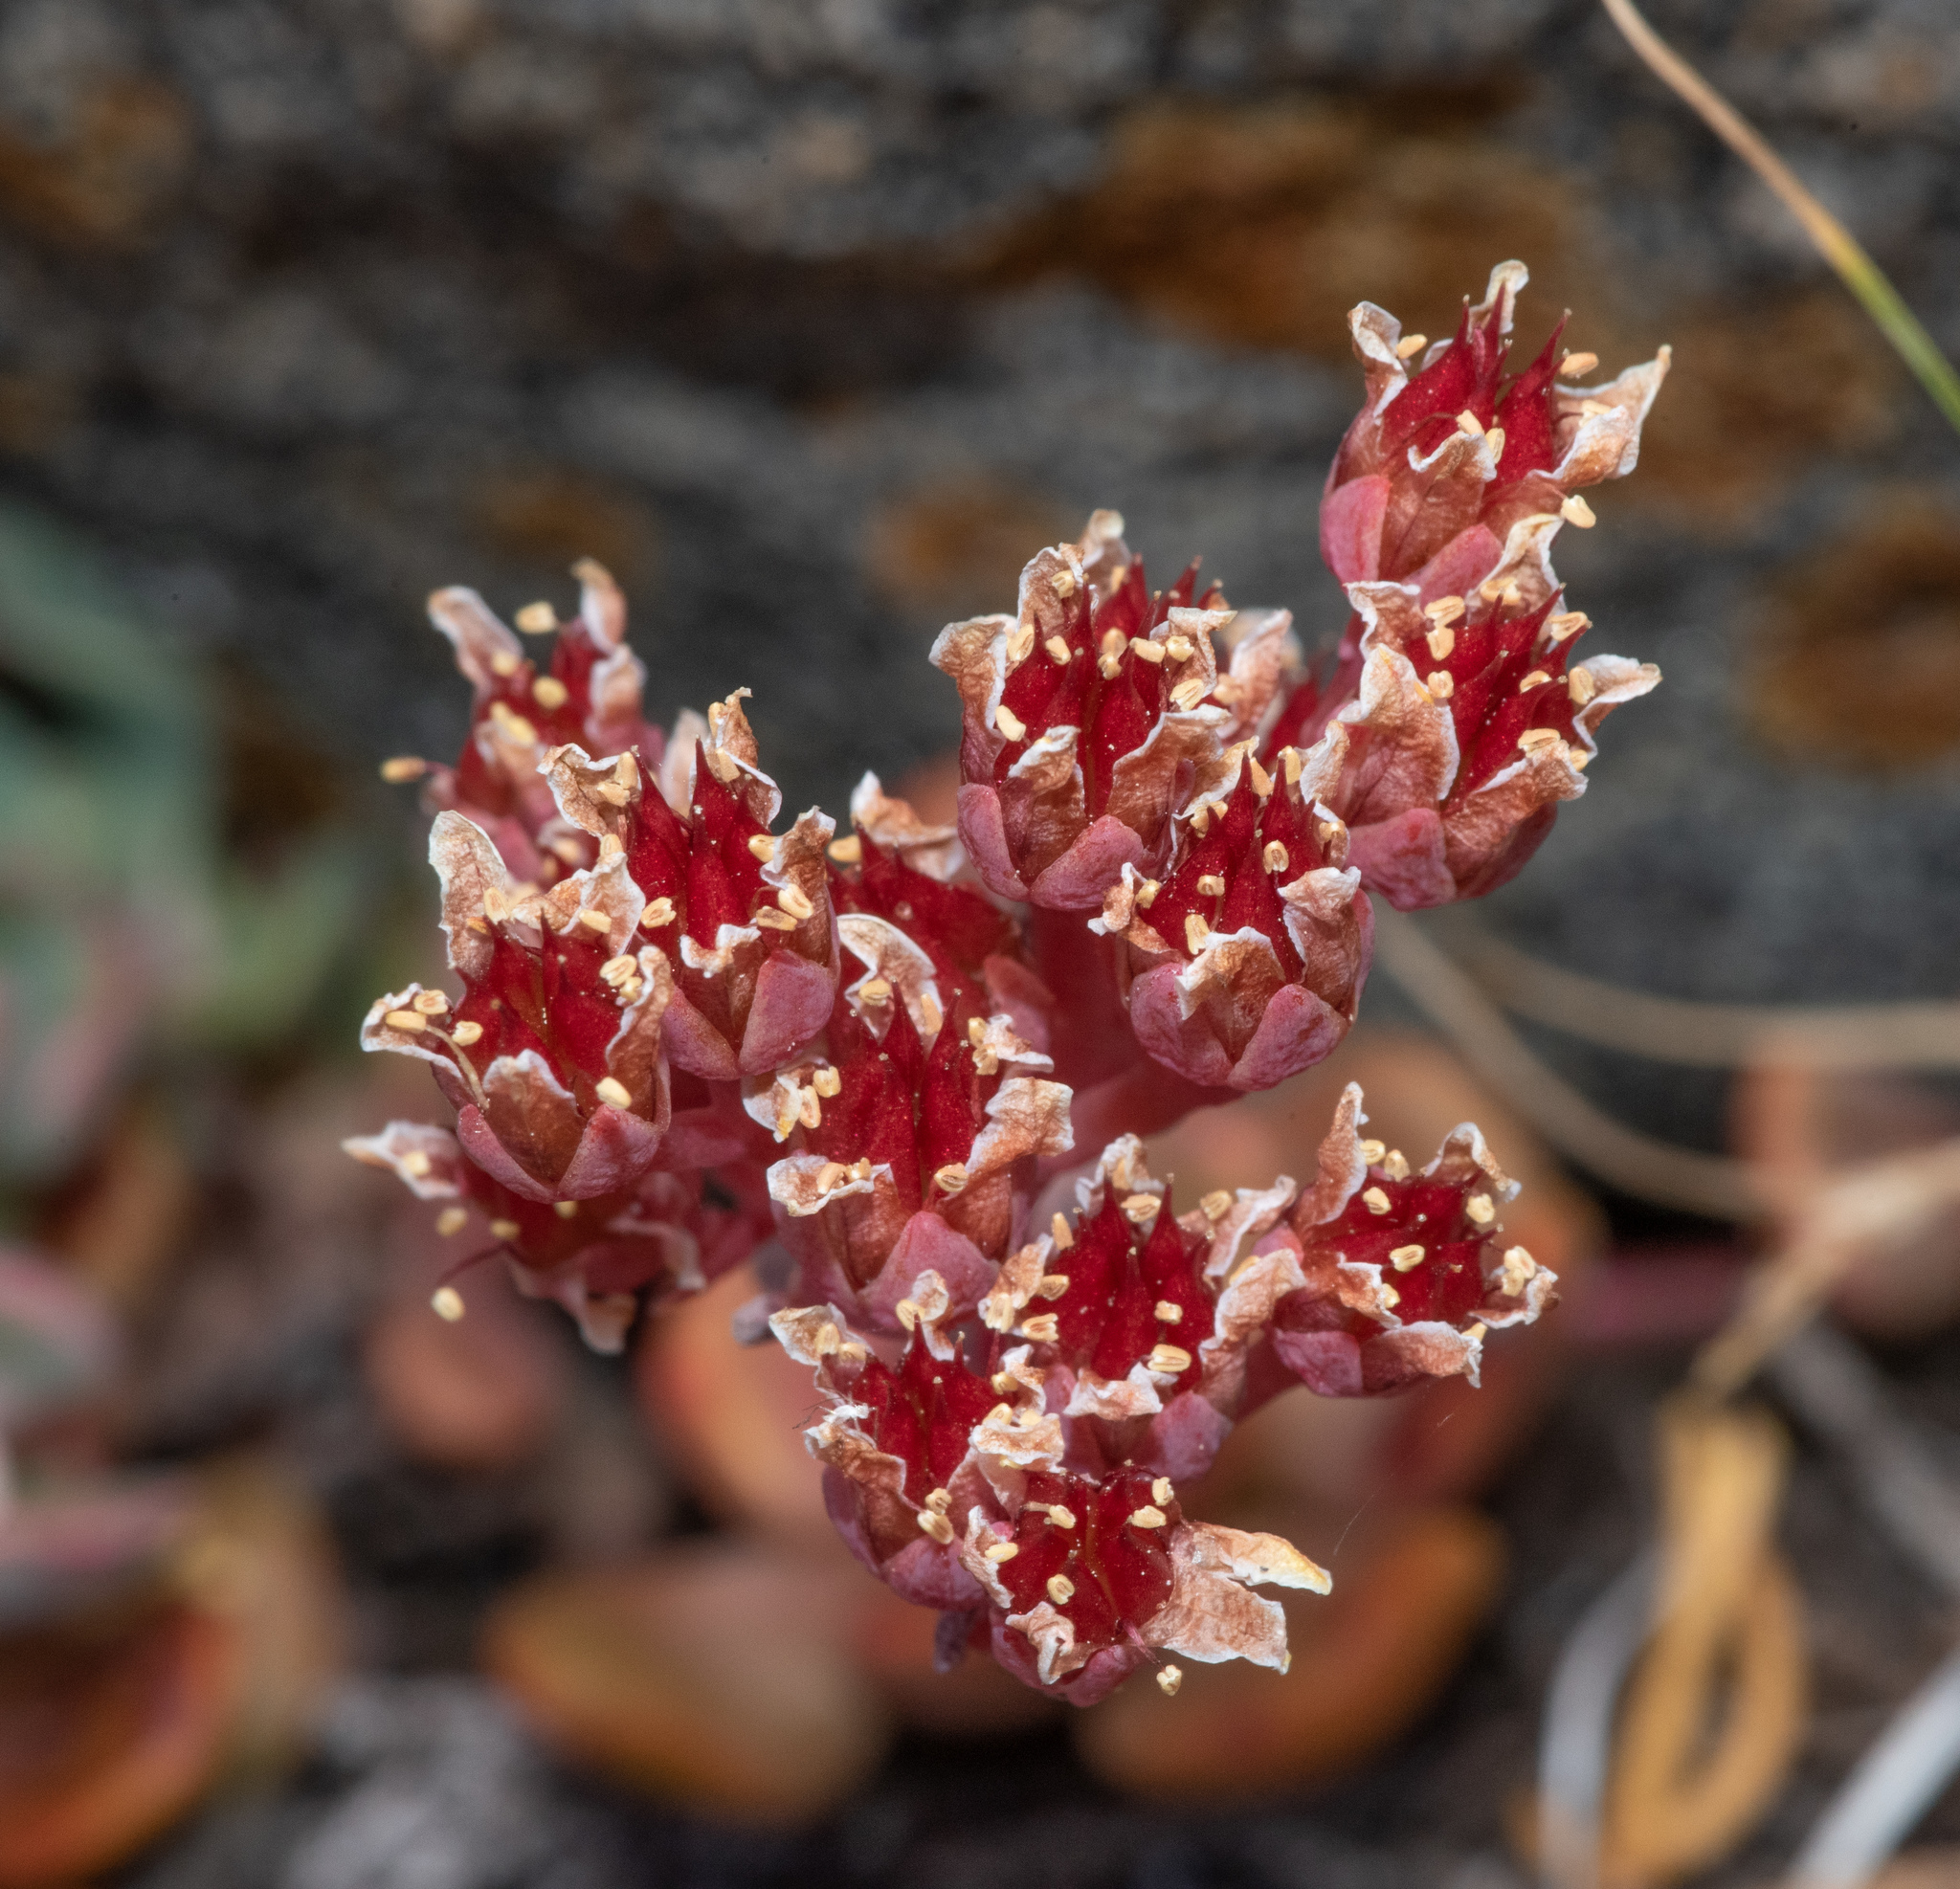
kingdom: Plantae
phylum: Tracheophyta
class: Magnoliopsida
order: Saxifragales
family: Crassulaceae
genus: Sedum
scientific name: Sedum obtusatum
